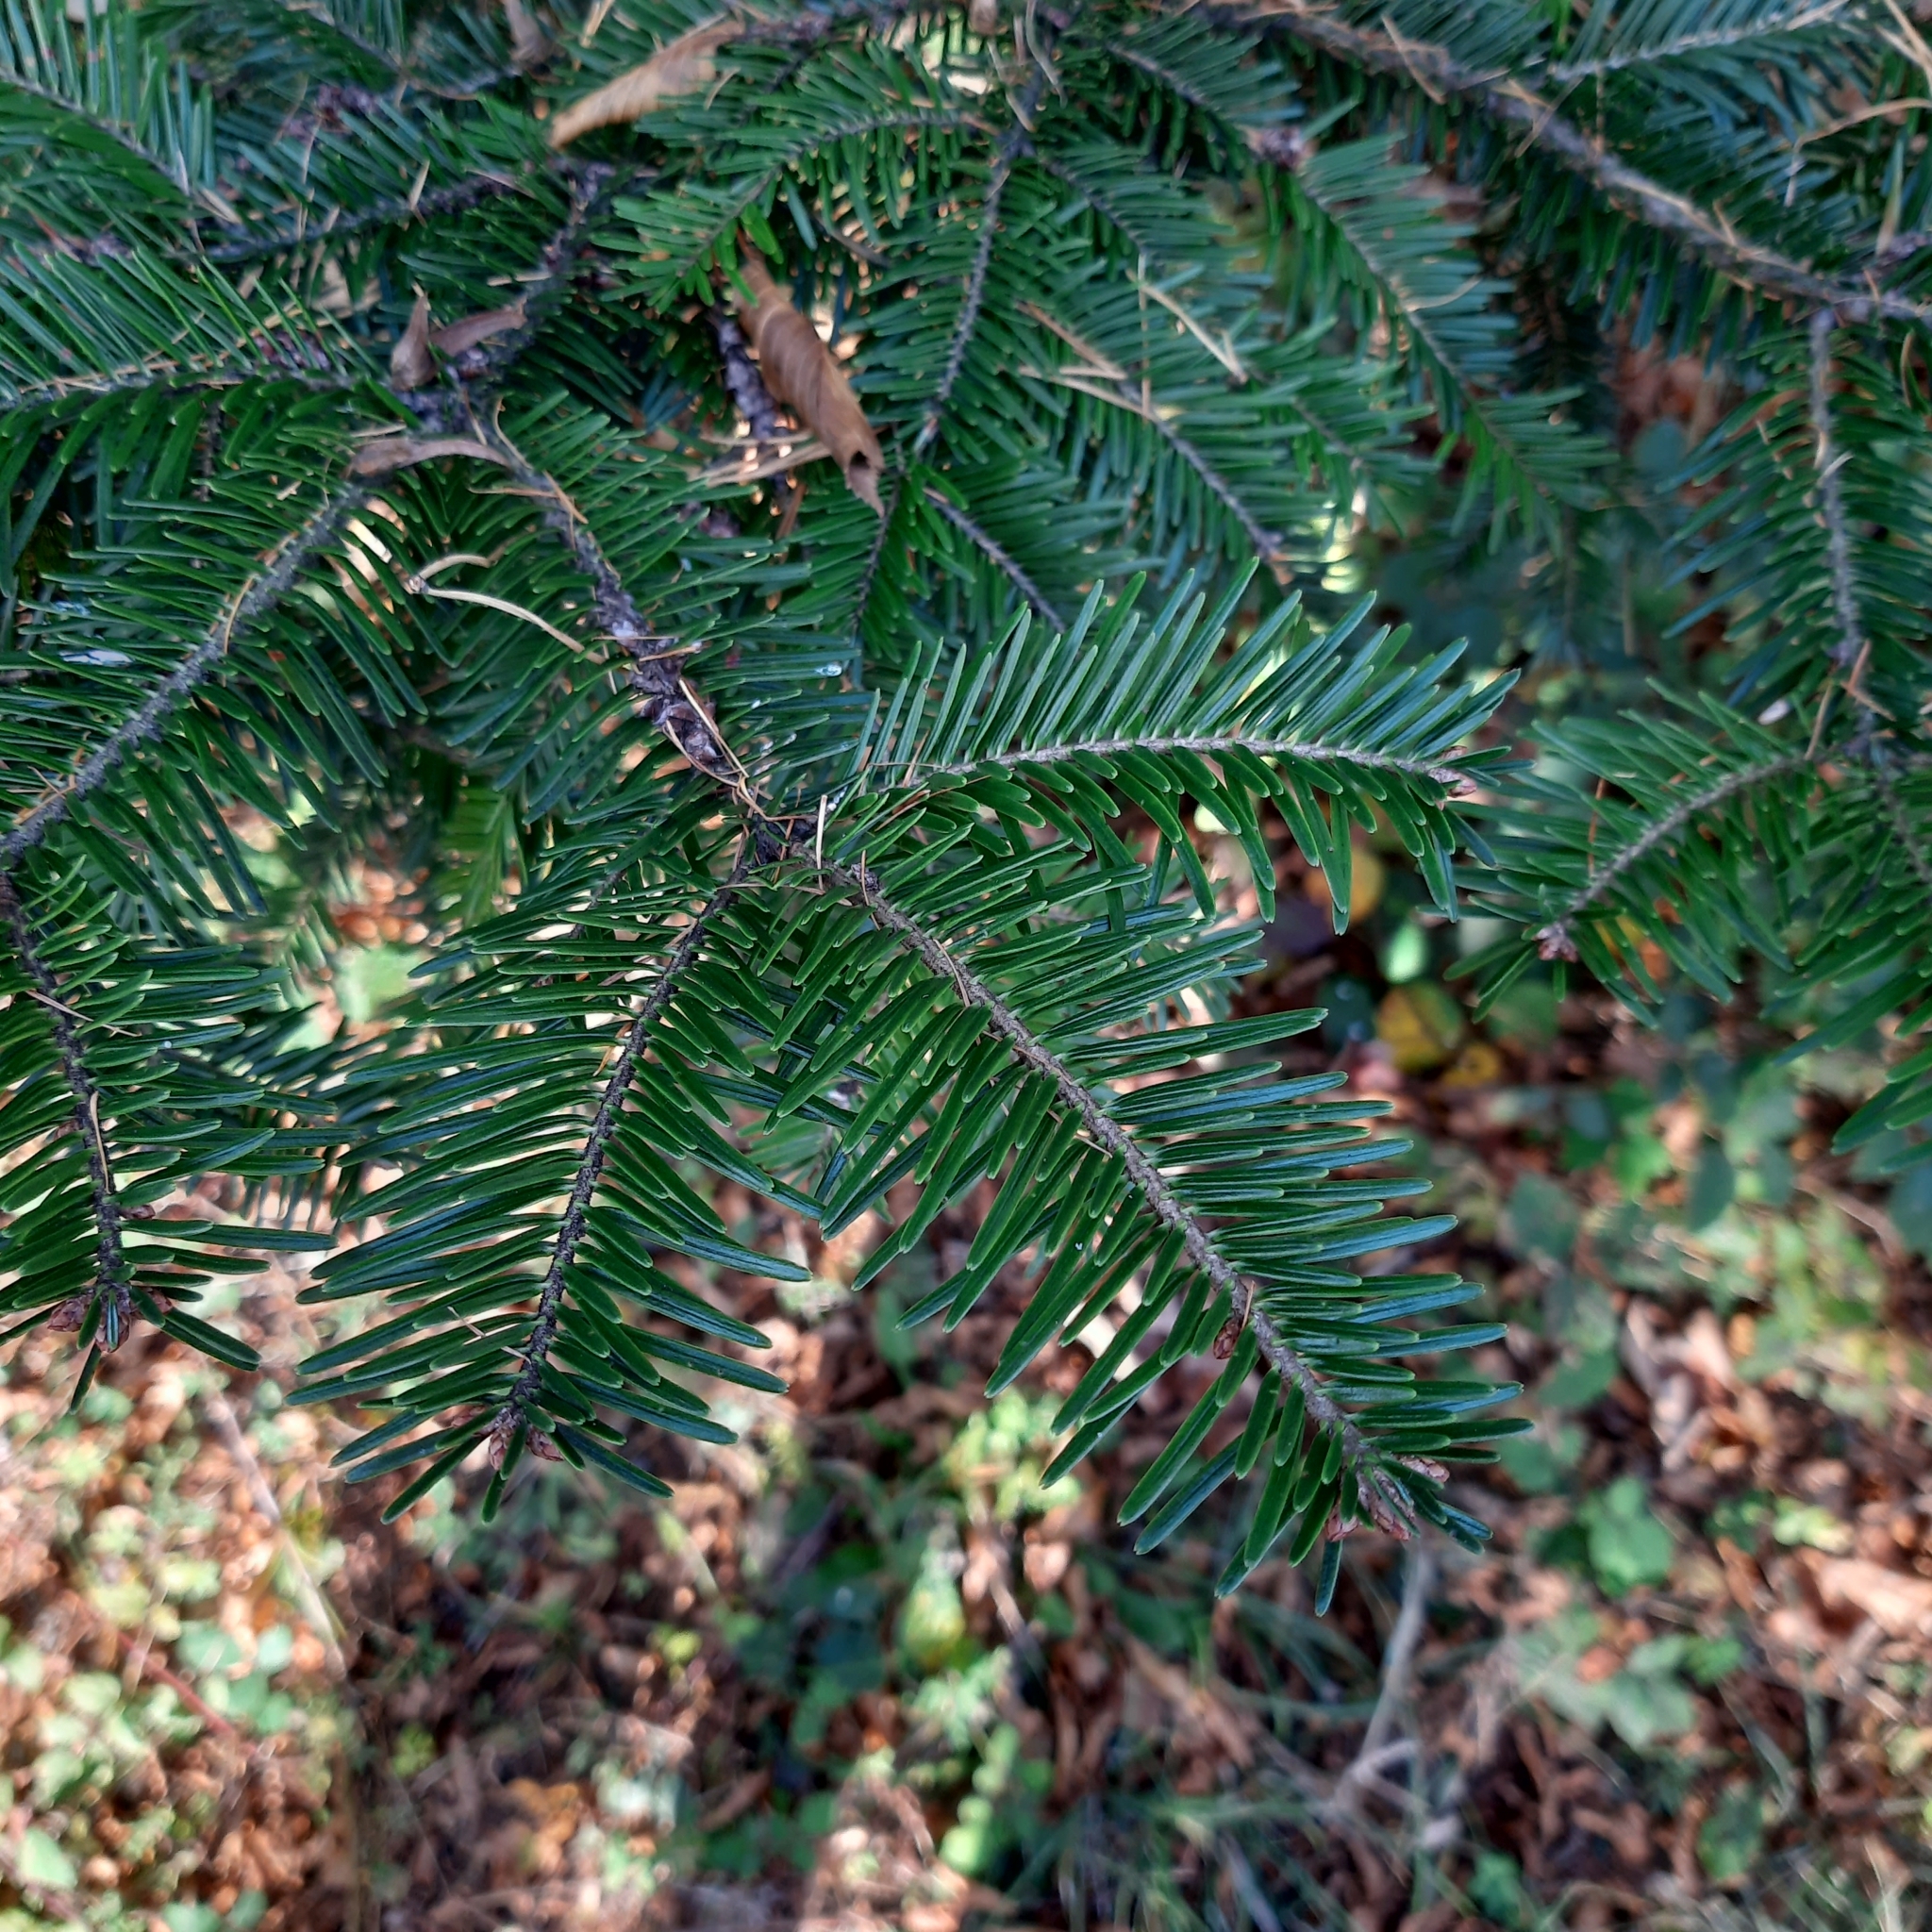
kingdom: Plantae
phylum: Tracheophyta
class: Pinopsida
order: Pinales
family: Pinaceae
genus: Abies
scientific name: Abies alba
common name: Silver fir
